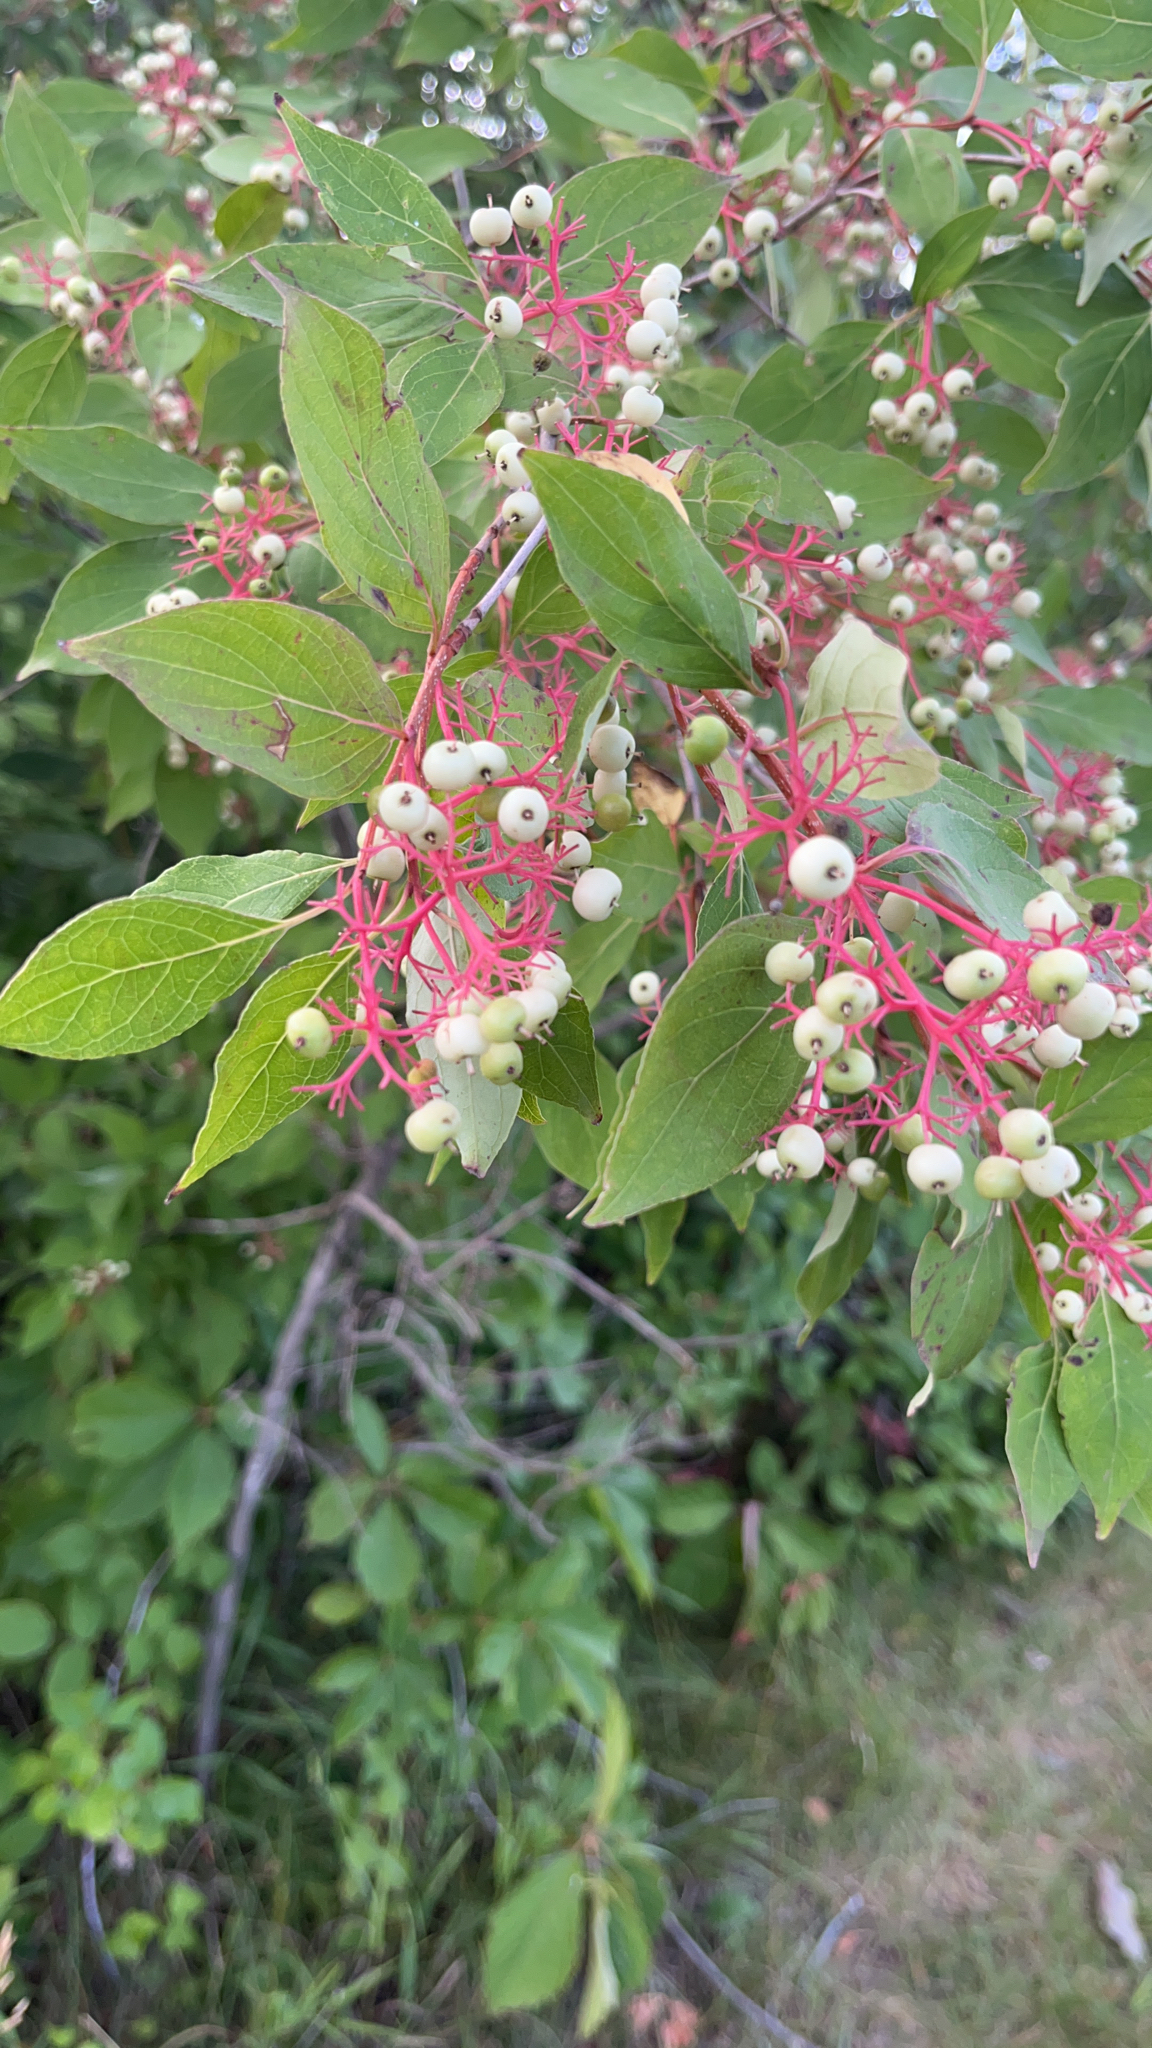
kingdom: Plantae
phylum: Tracheophyta
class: Magnoliopsida
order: Cornales
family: Cornaceae
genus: Cornus
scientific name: Cornus racemosa
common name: Panicled dogwood
